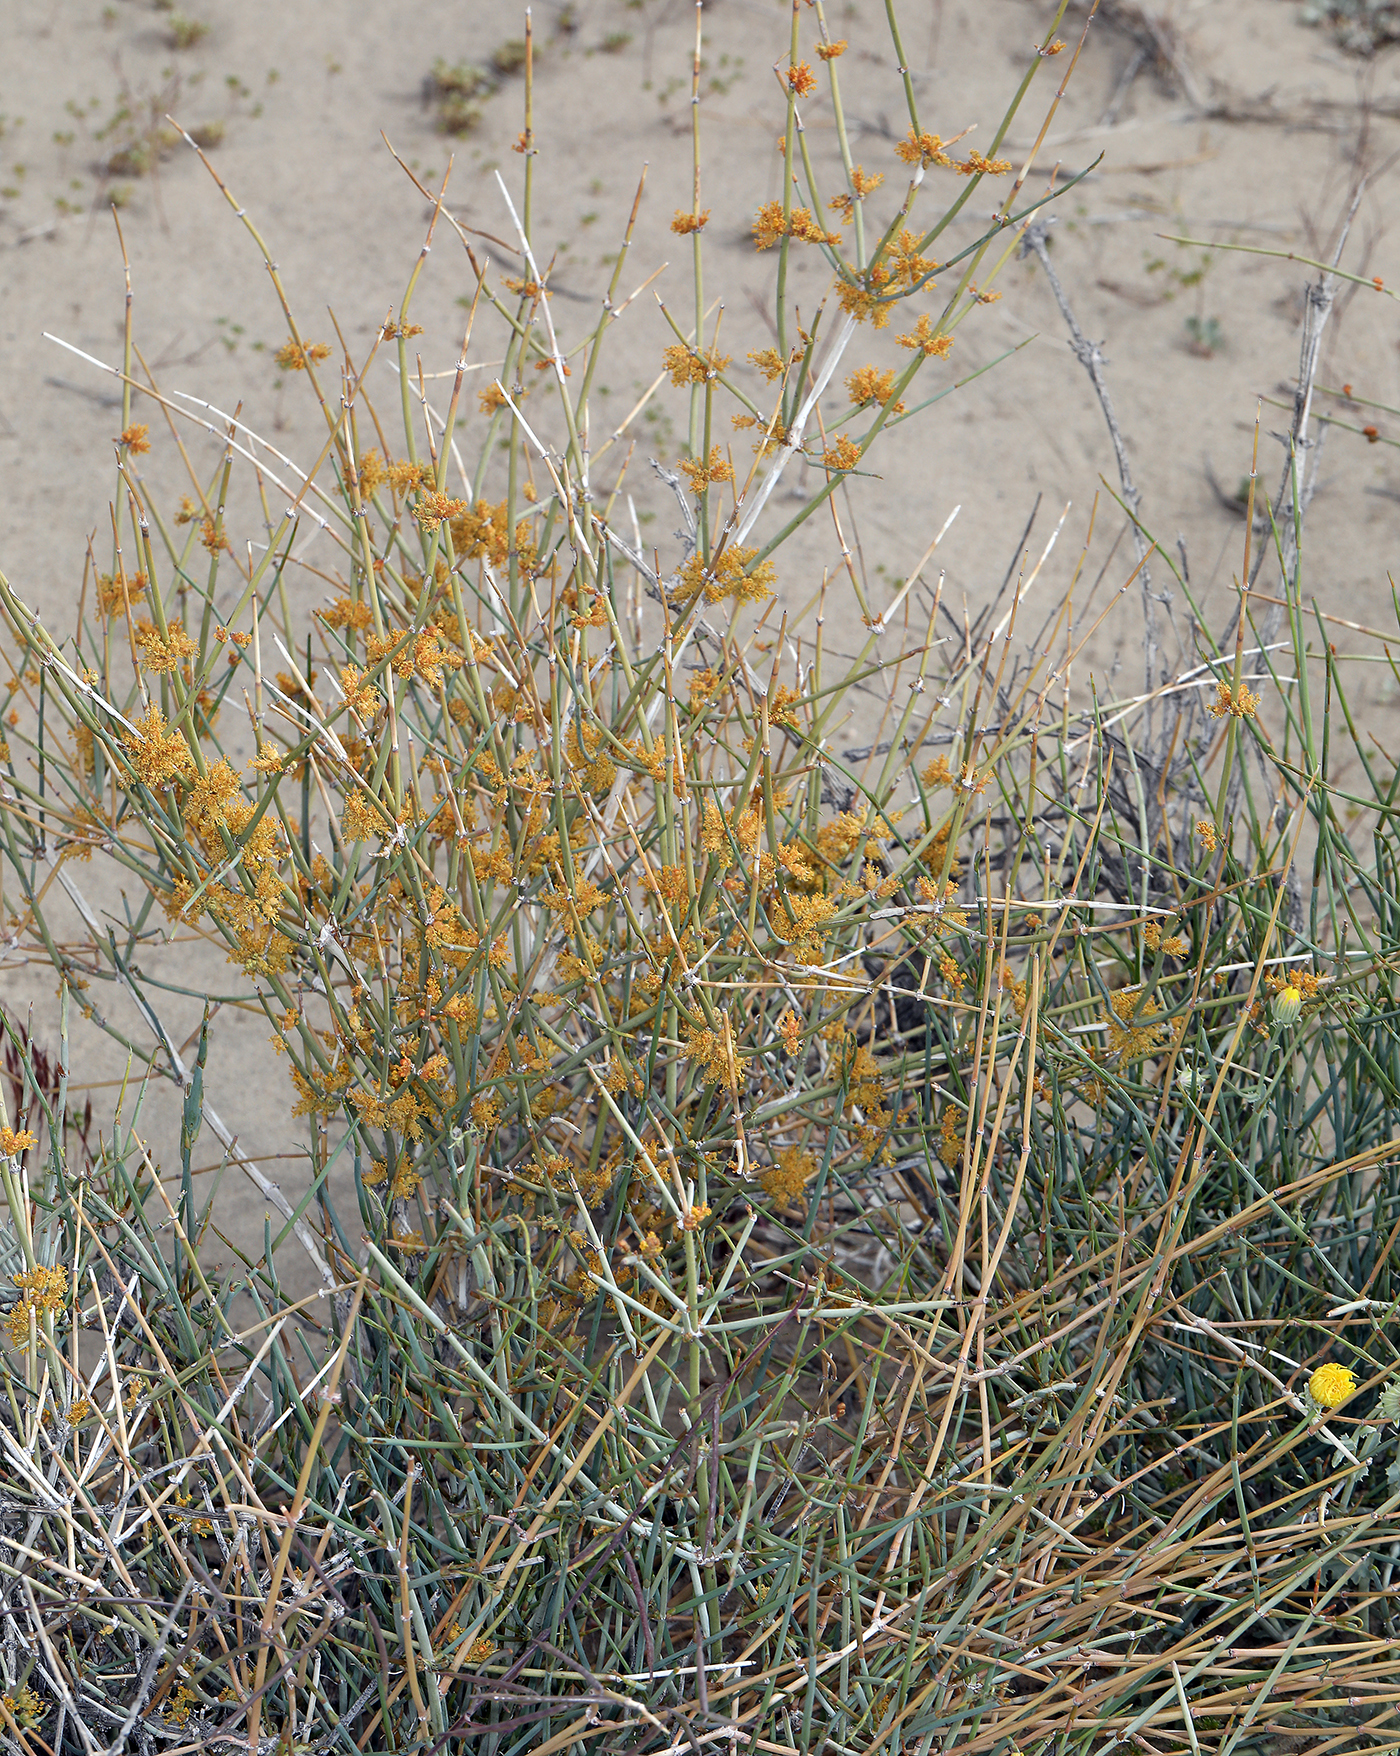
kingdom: Plantae
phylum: Tracheophyta
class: Gnetopsida
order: Ephedrales
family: Ephedraceae
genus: Ephedra
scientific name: Ephedra nevadensis
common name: Gray ephedra
